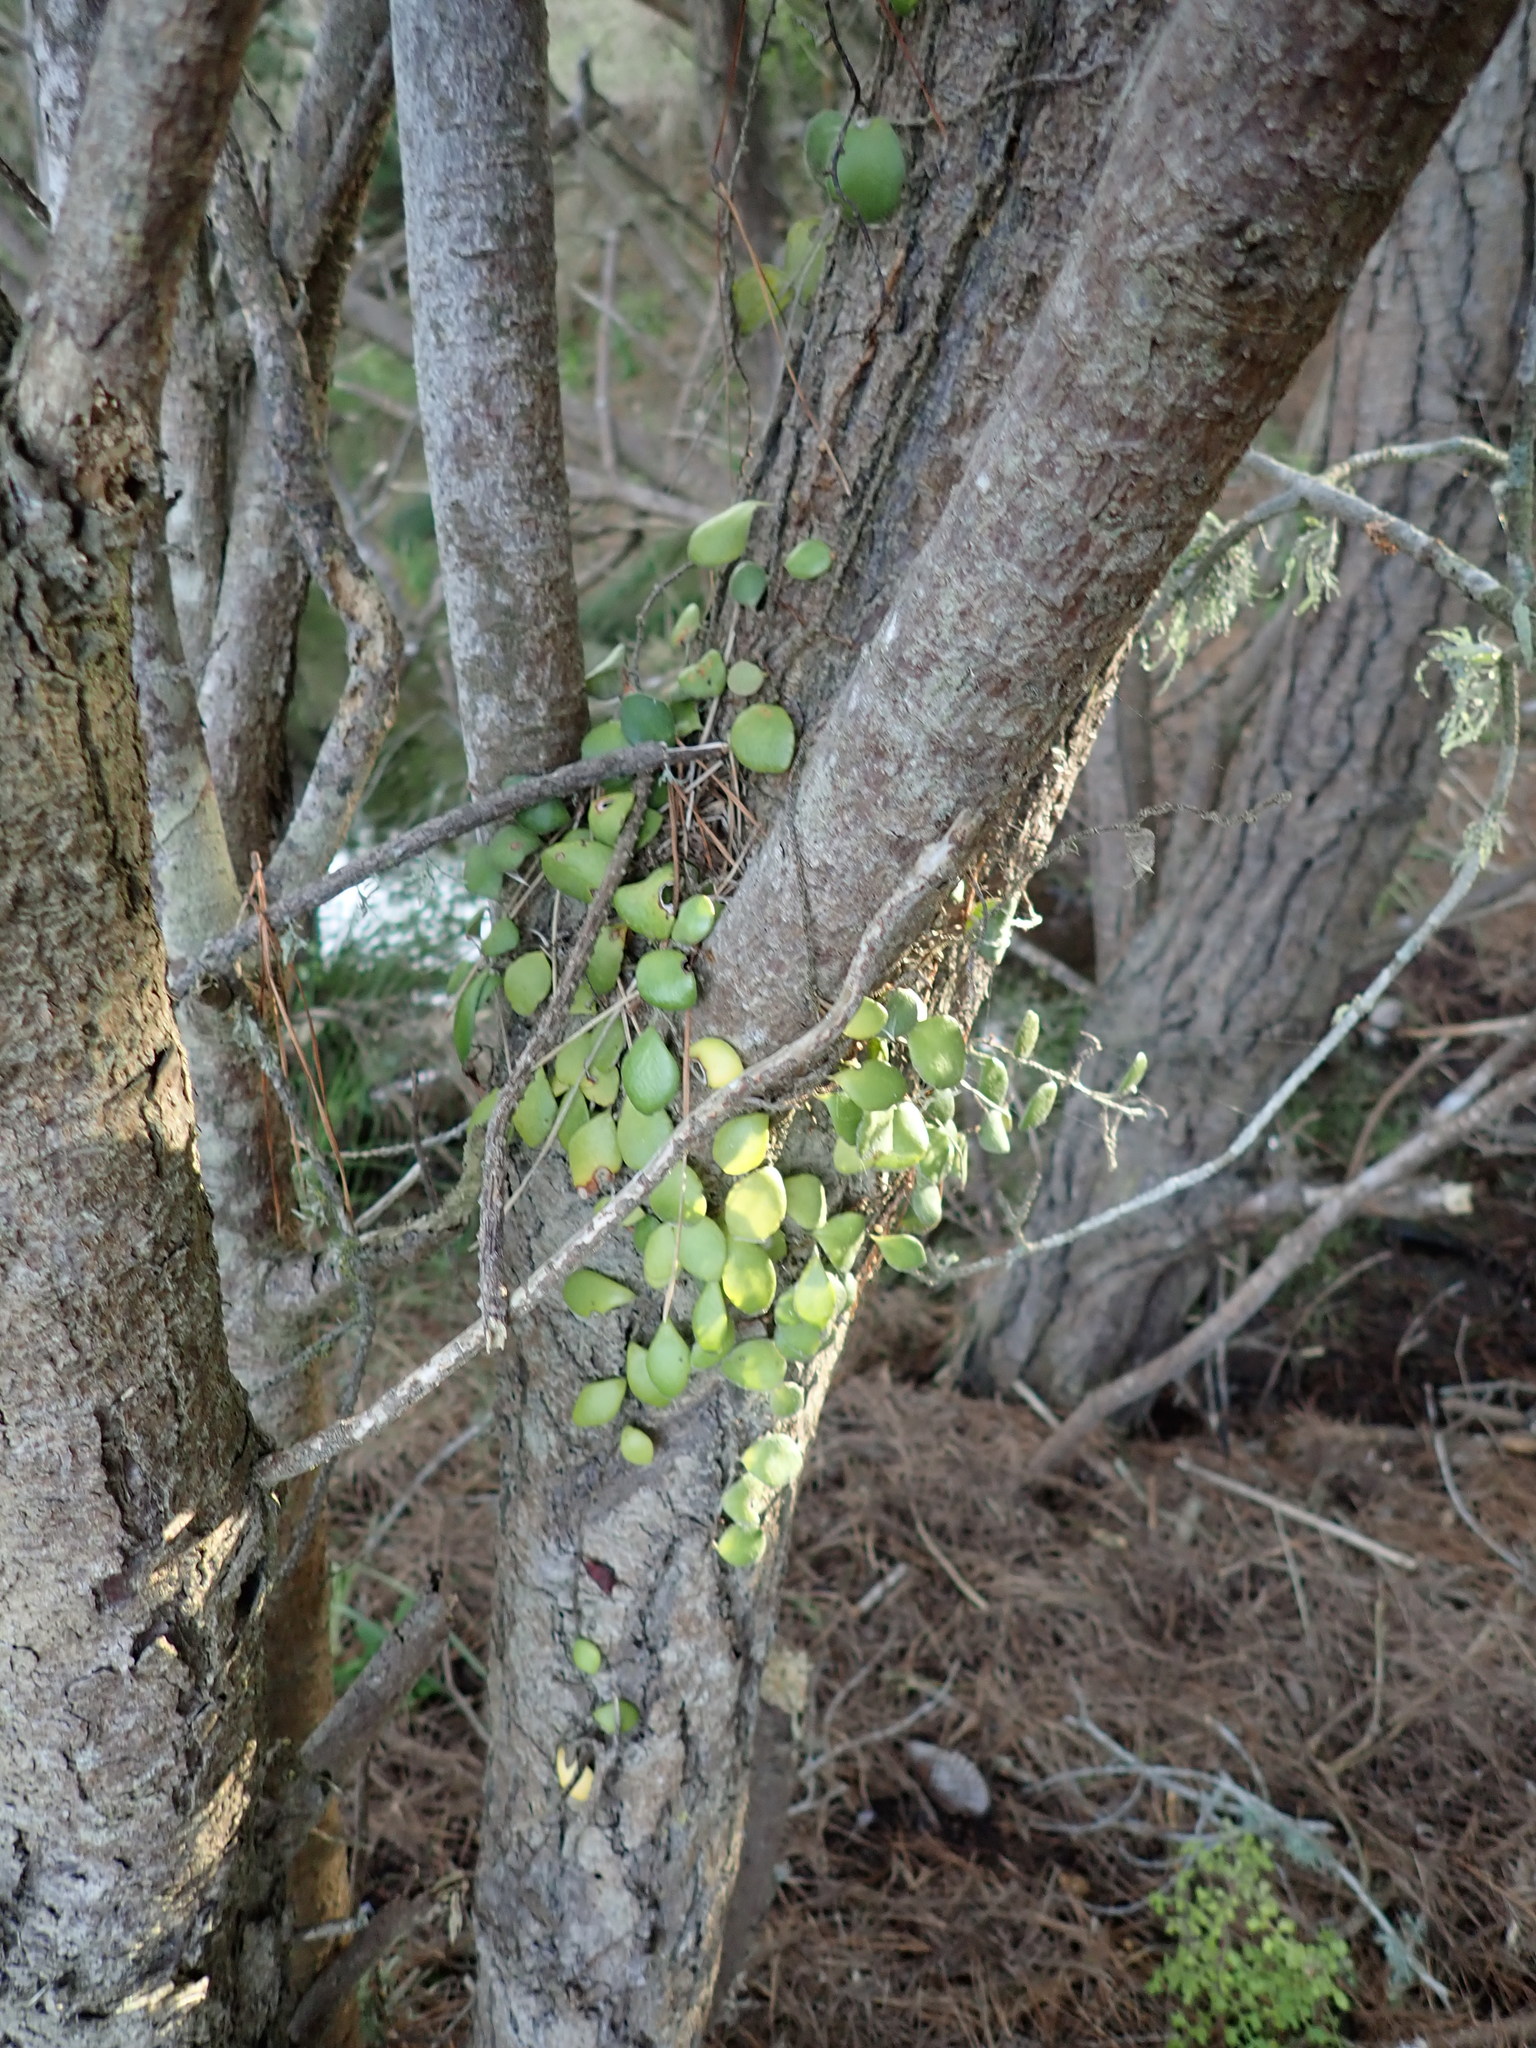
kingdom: Plantae
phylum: Tracheophyta
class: Polypodiopsida
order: Polypodiales
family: Polypodiaceae
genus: Pyrrosia
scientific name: Pyrrosia eleagnifolia
